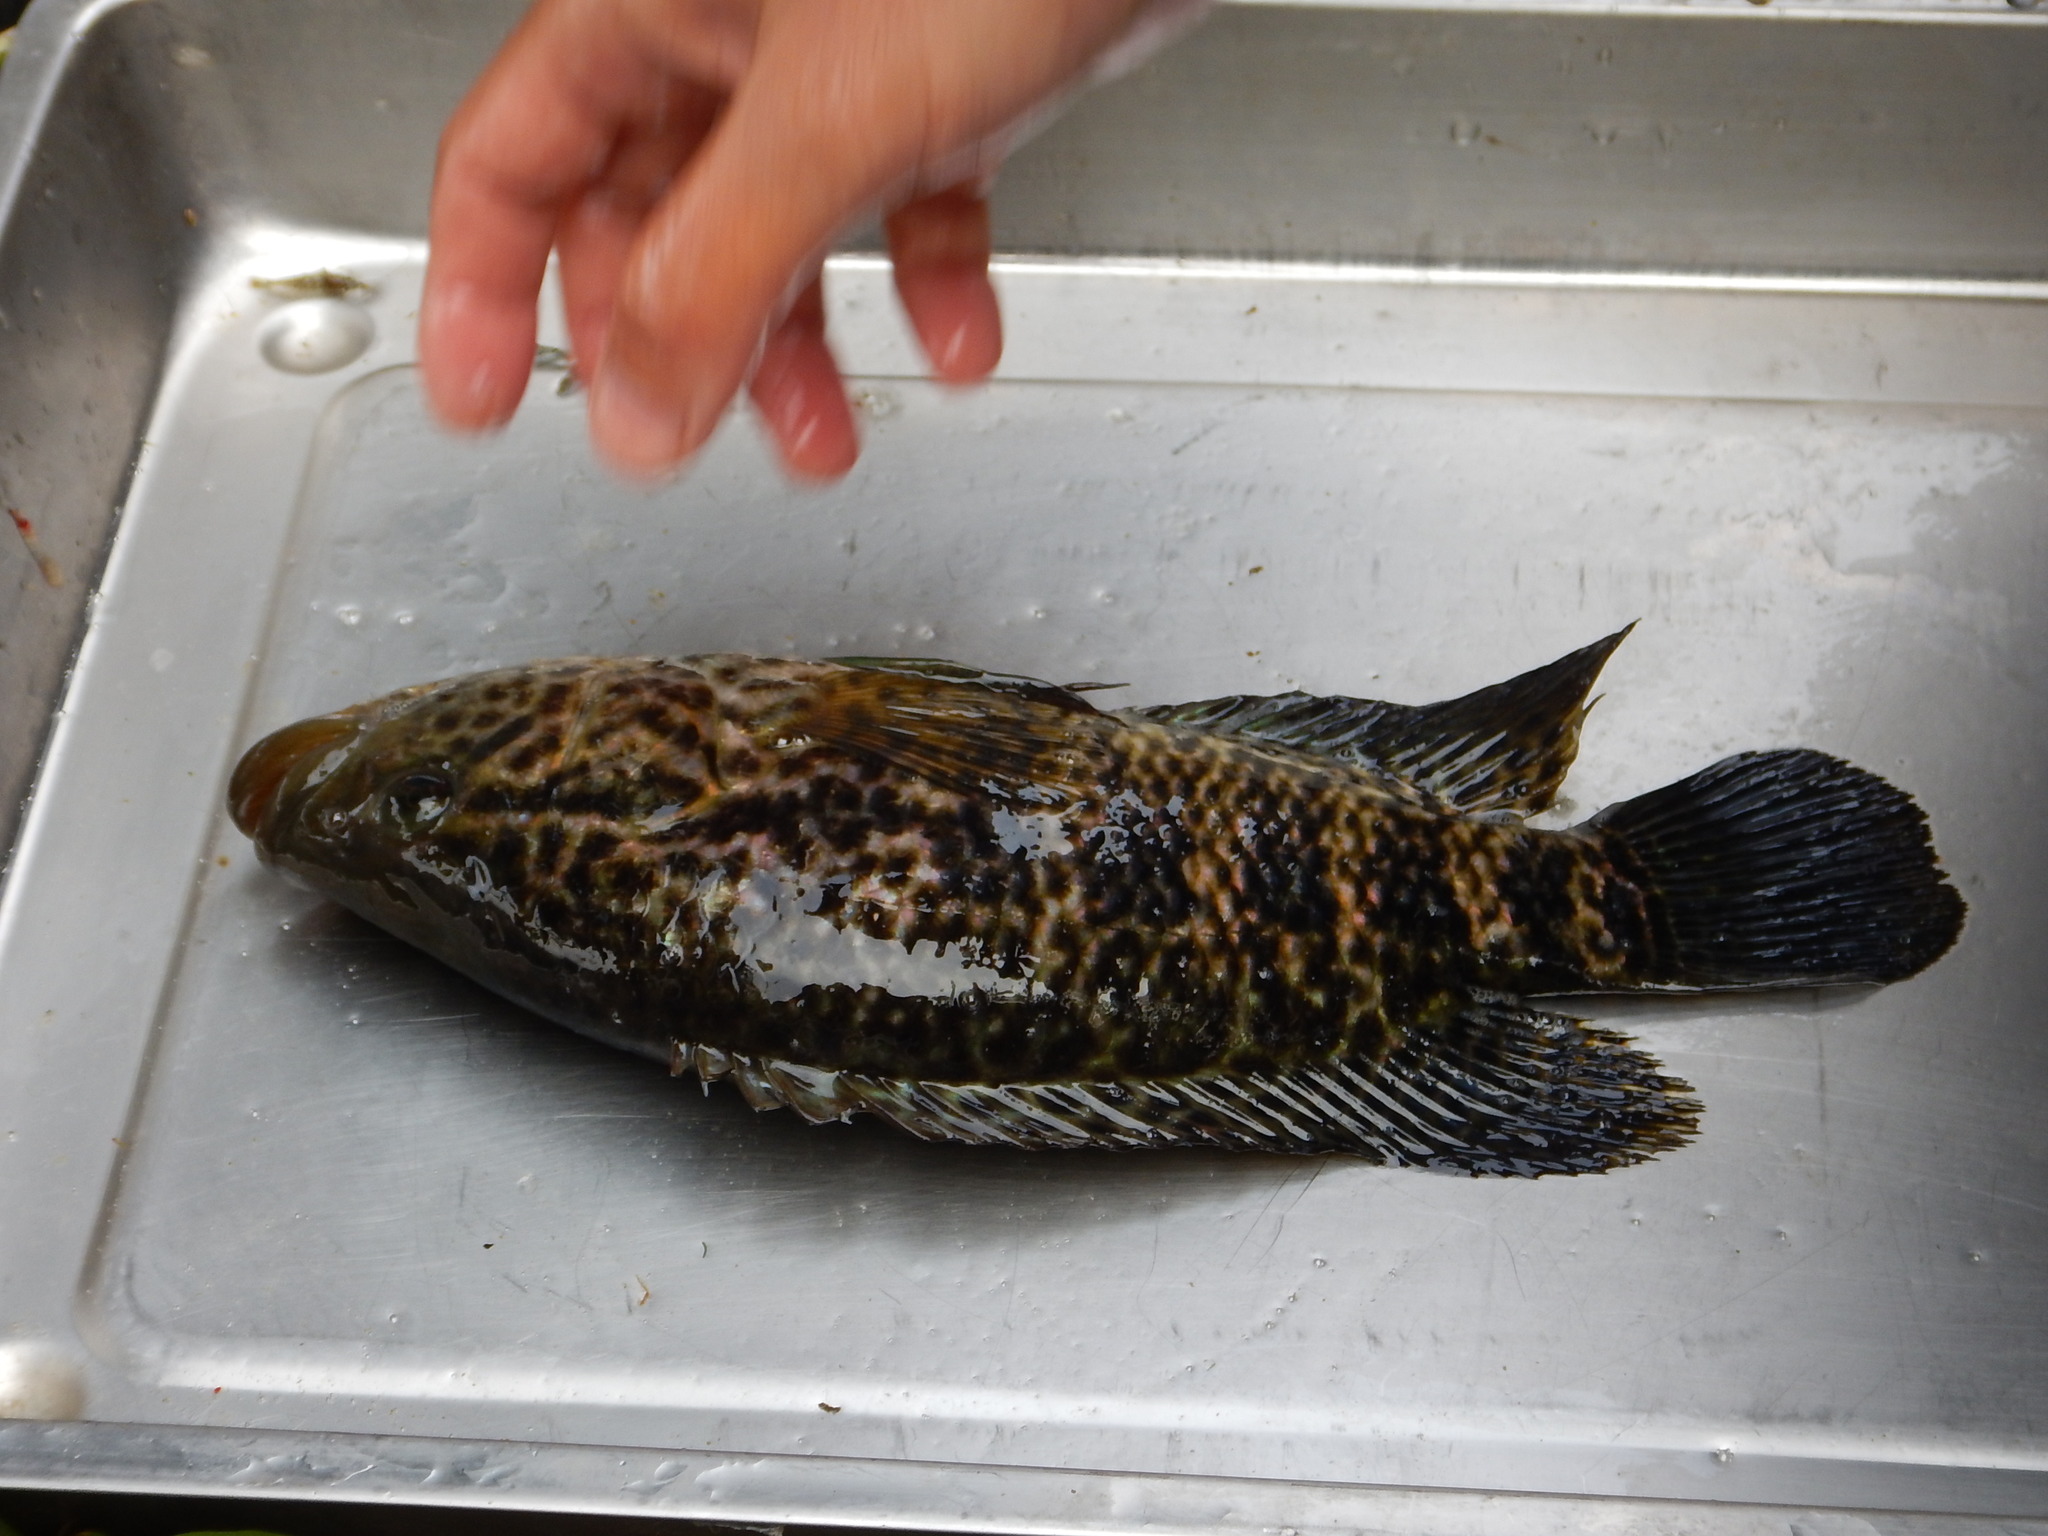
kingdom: Animalia
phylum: Chordata
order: Perciformes
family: Cichlidae
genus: Parachromis
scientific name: Parachromis managuensis
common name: Jaguar guapote
